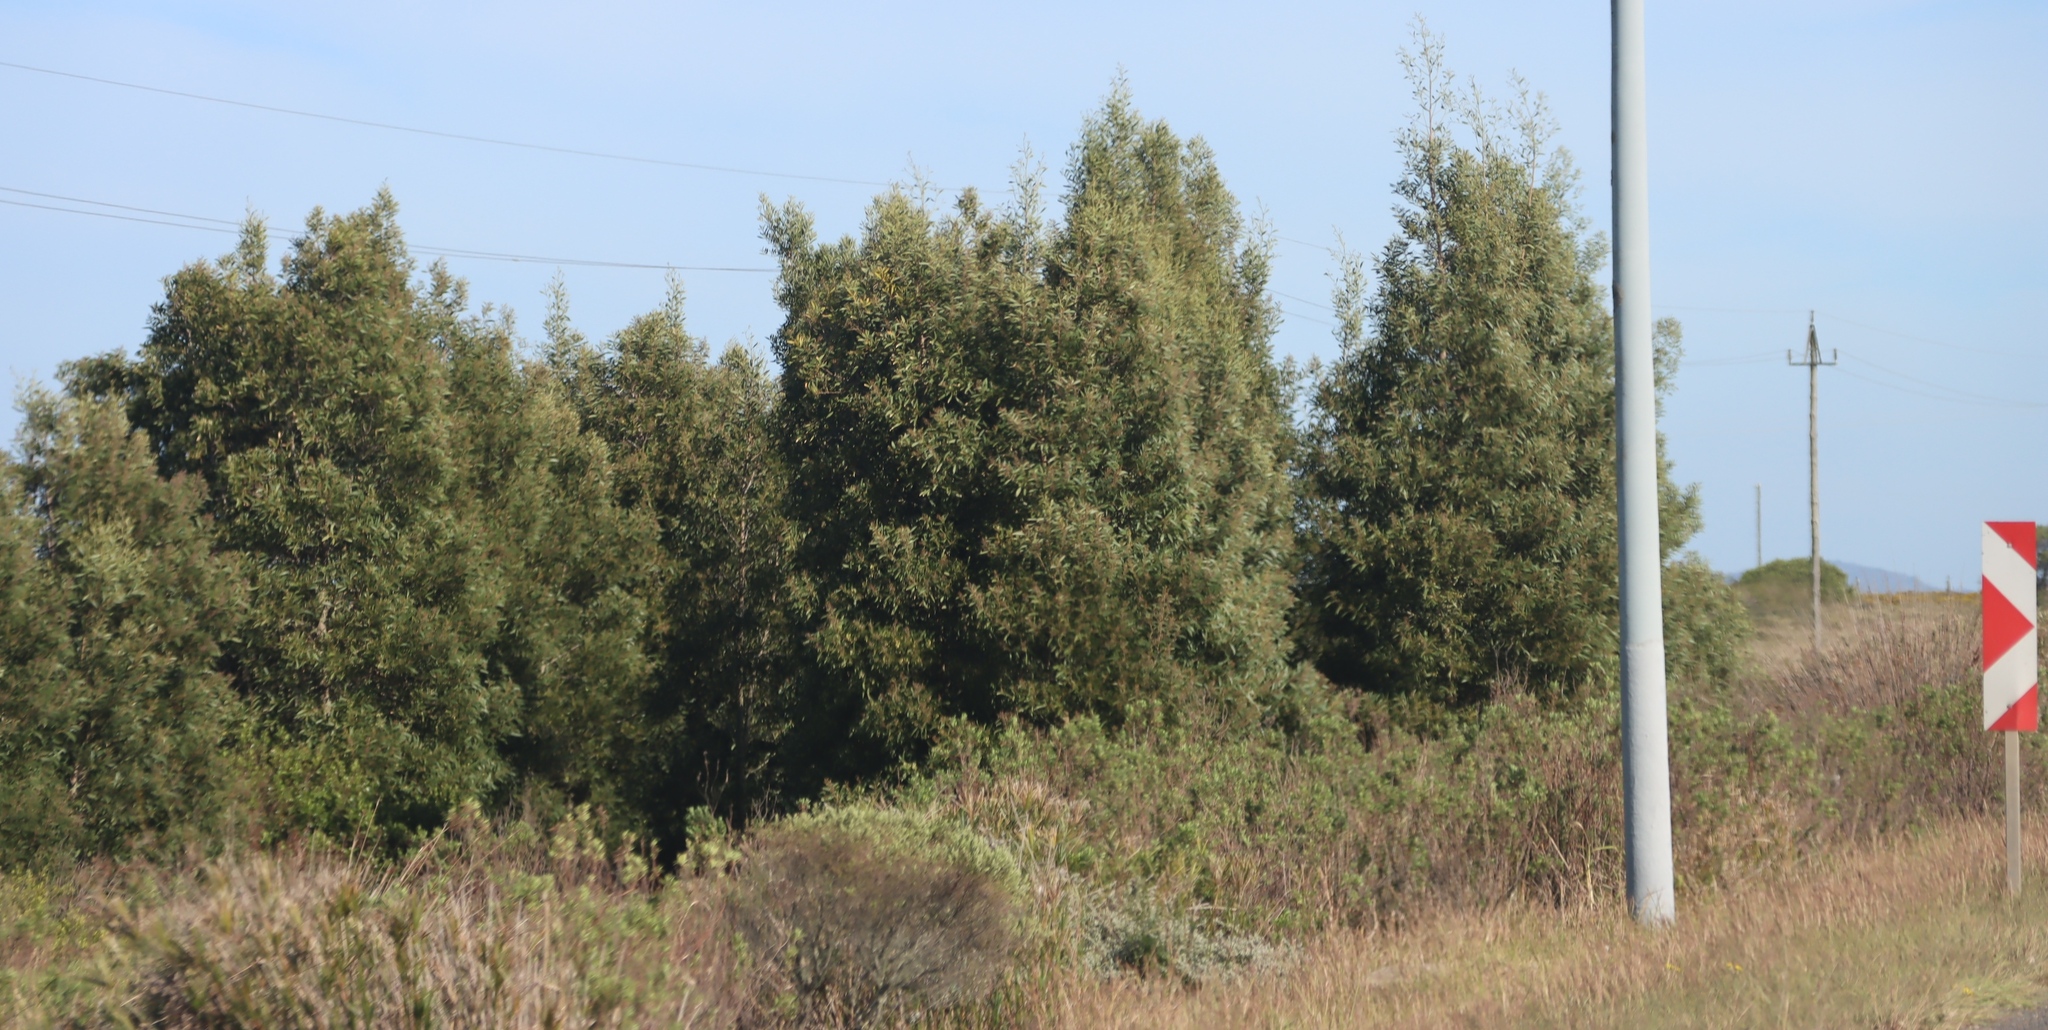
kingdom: Plantae
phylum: Tracheophyta
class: Magnoliopsida
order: Fabales
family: Fabaceae
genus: Acacia
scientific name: Acacia melanoxylon
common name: Blackwood
